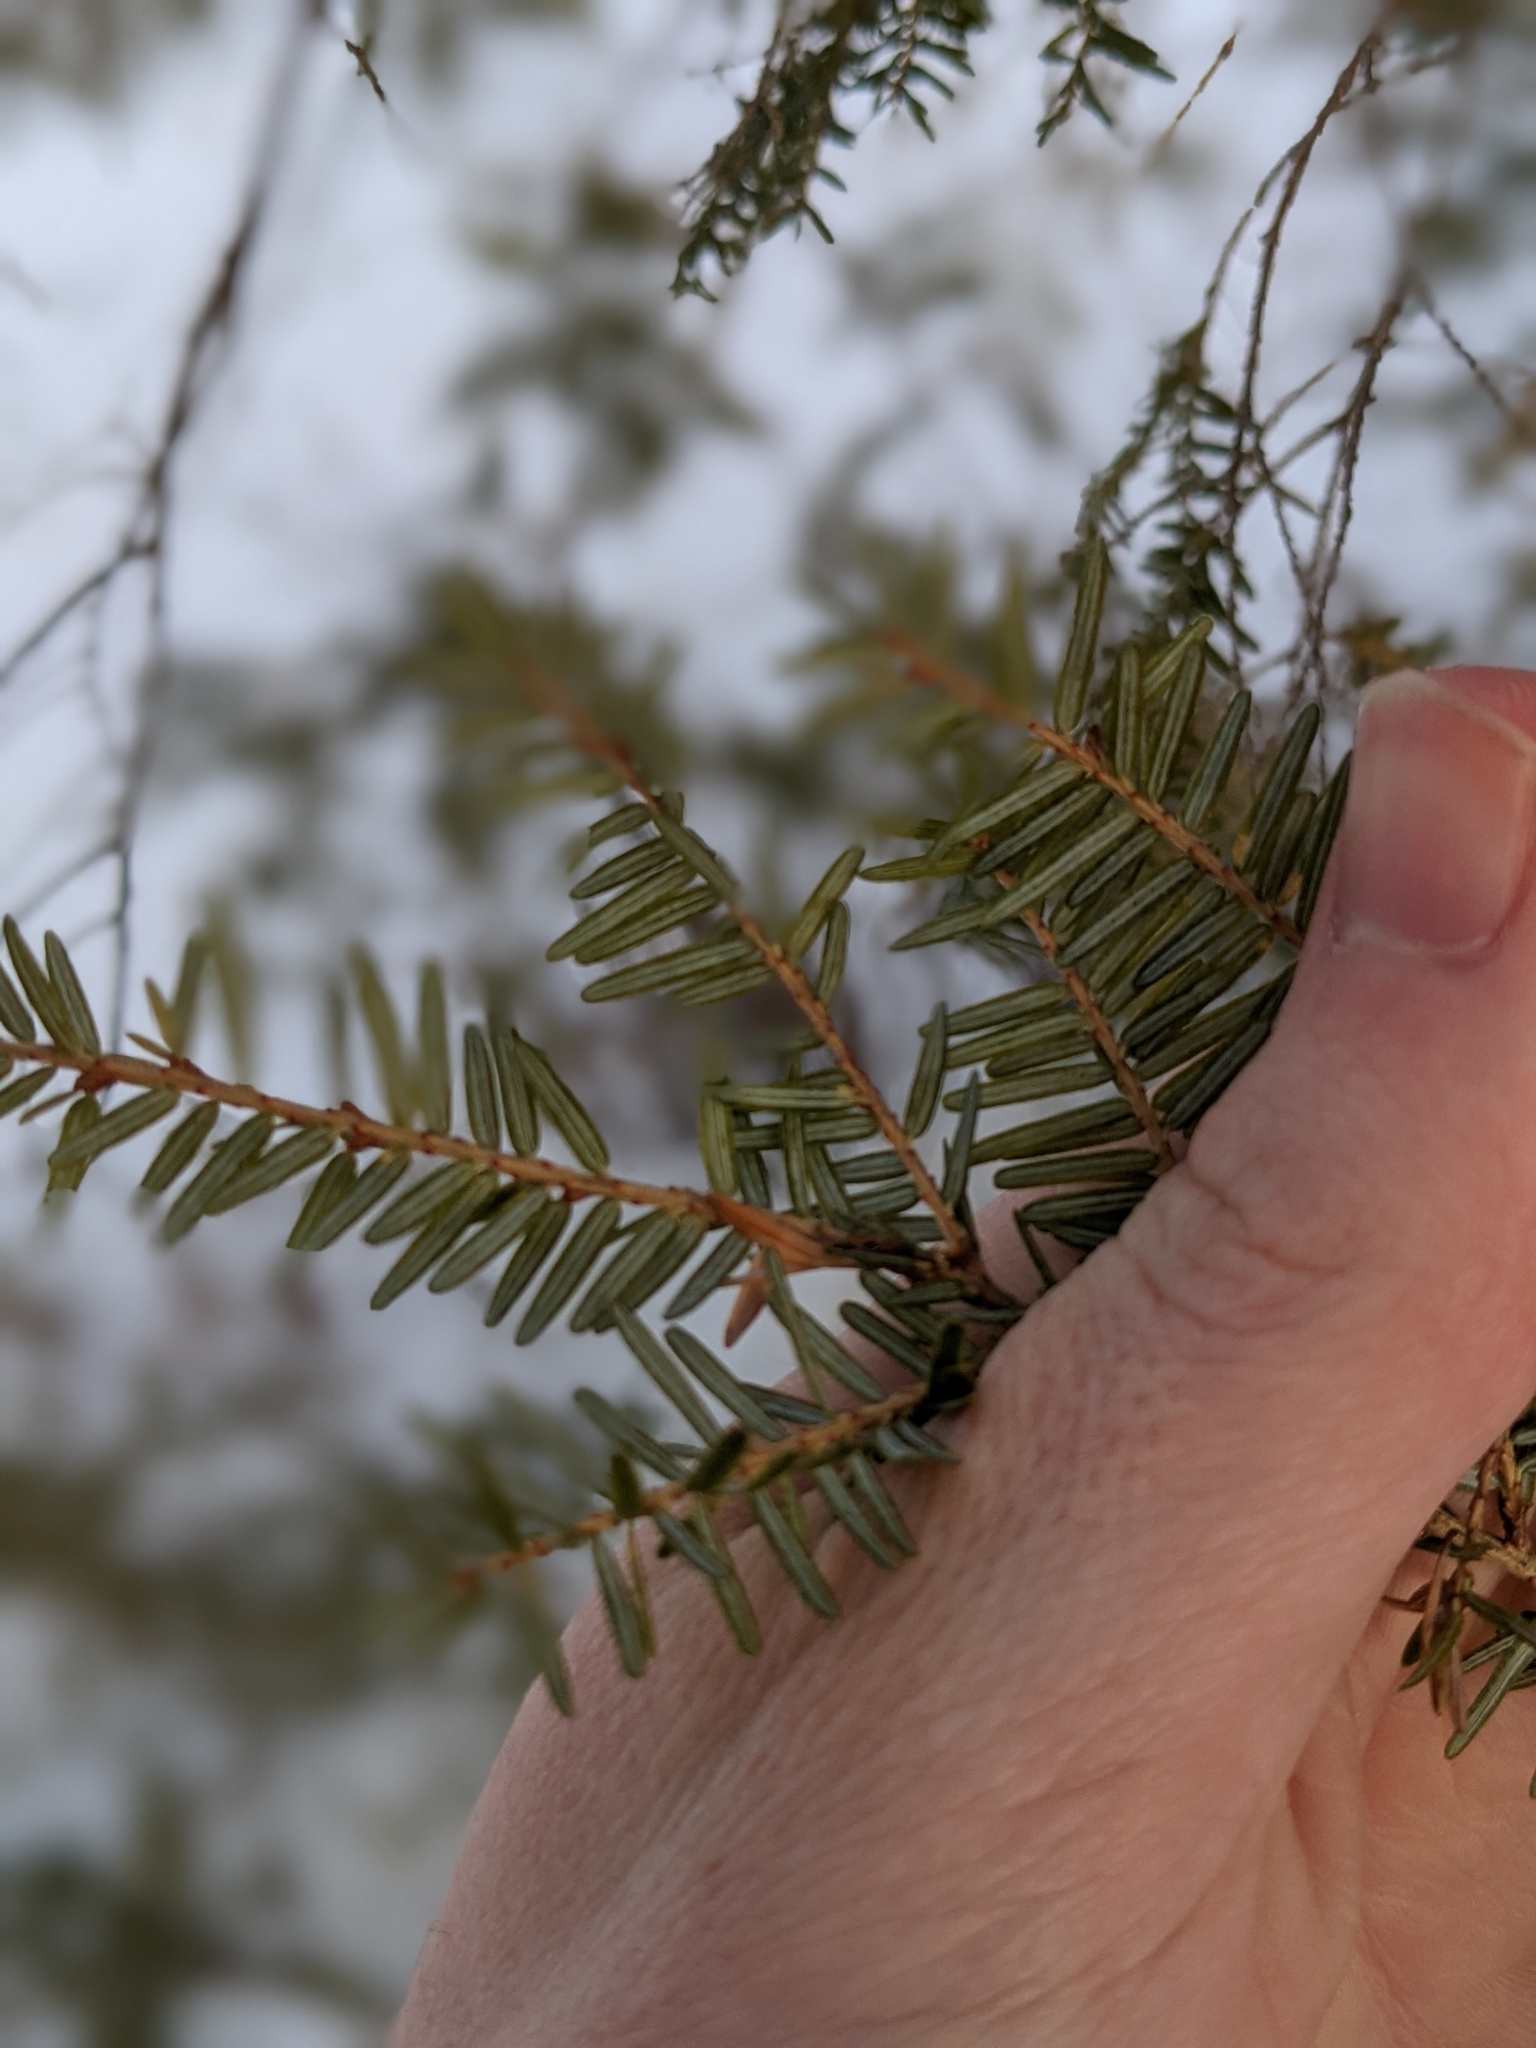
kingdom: Plantae
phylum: Tracheophyta
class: Pinopsida
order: Pinales
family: Pinaceae
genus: Tsuga
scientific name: Tsuga canadensis
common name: Eastern hemlock
